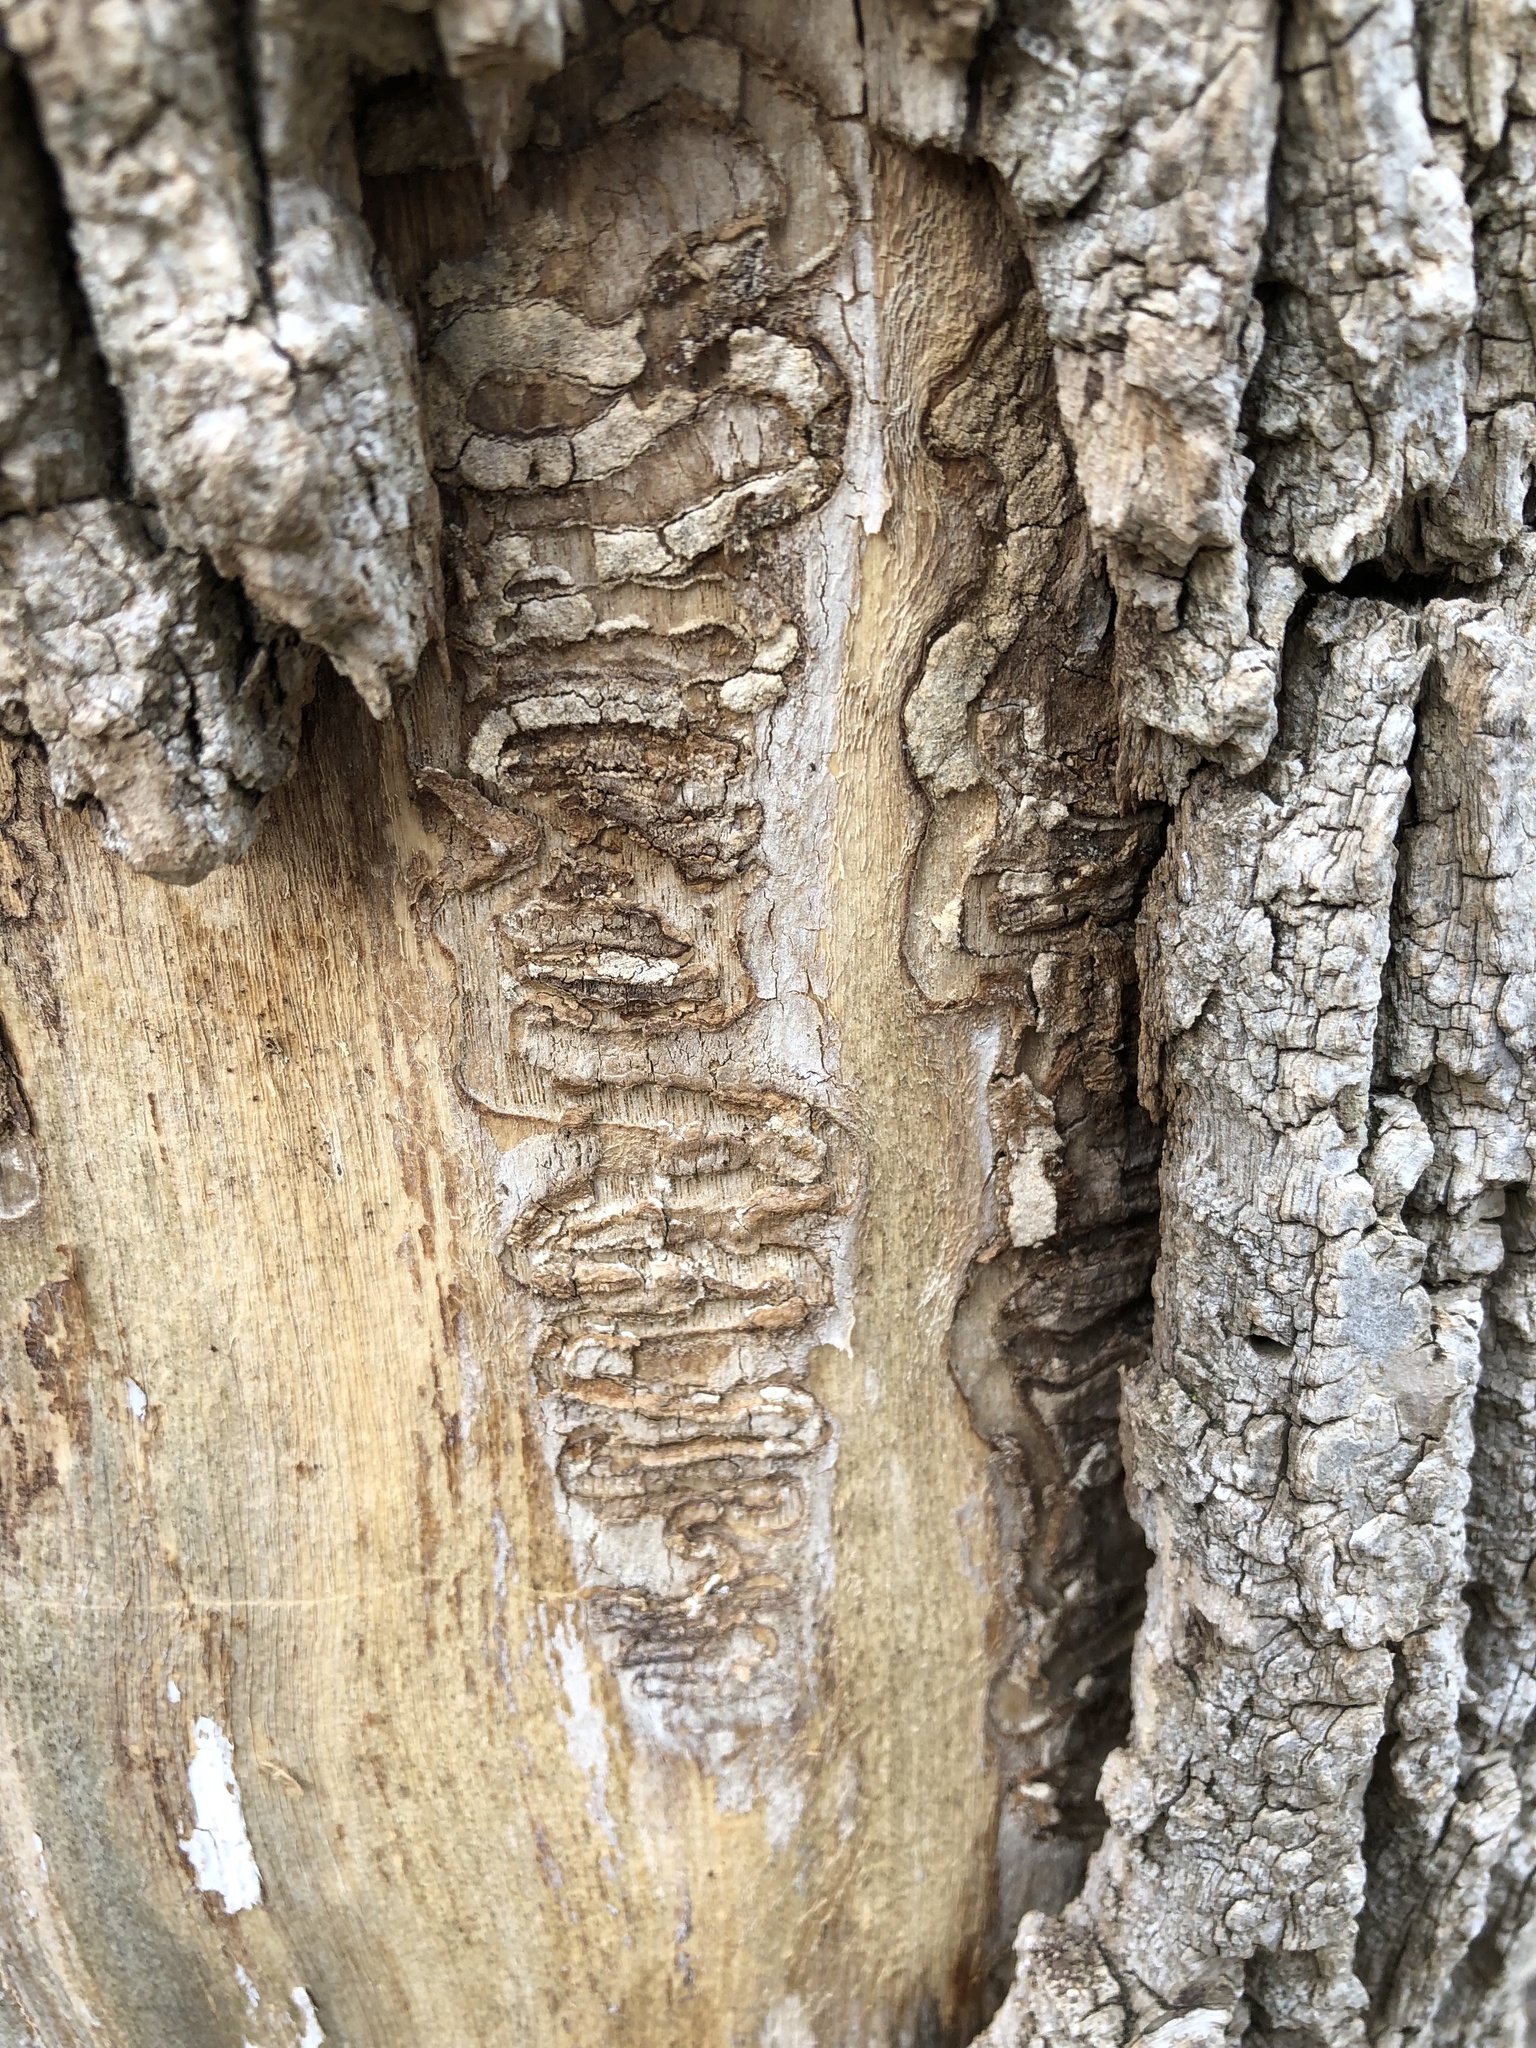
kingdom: Animalia
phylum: Arthropoda
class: Insecta
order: Coleoptera
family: Buprestidae
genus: Agrilus
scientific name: Agrilus planipennis
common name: Emerald ash borer
